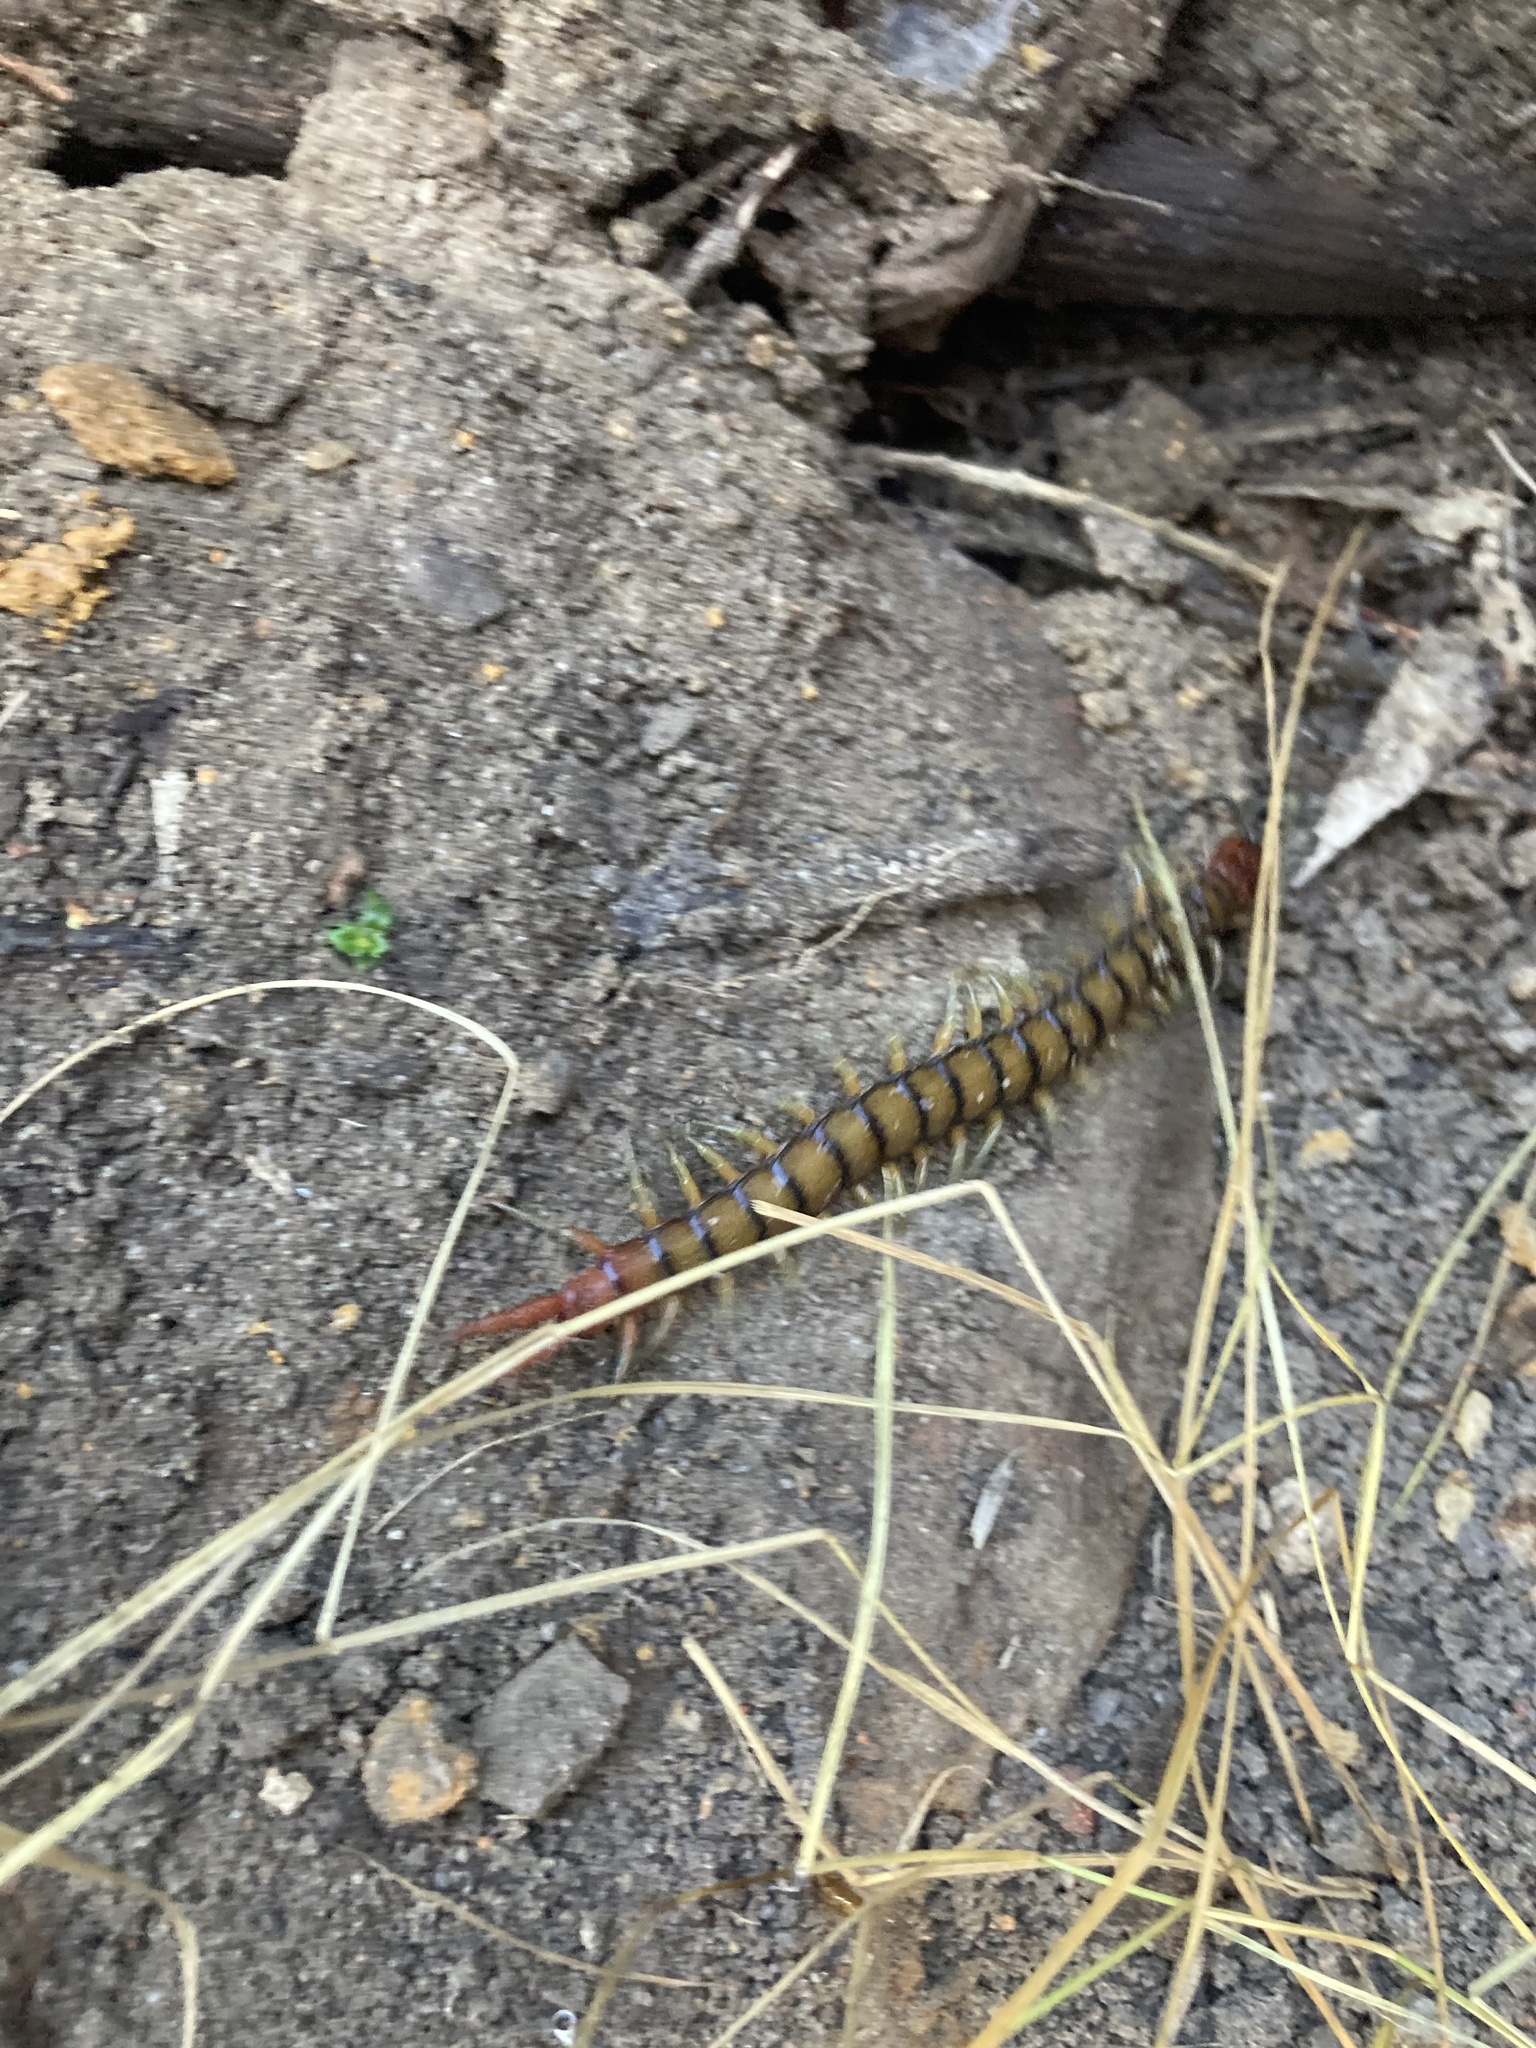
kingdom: Animalia
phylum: Arthropoda
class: Chilopoda
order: Scolopendromorpha
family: Scolopendridae
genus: Cormocephalus
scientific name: Cormocephalus aurantiipes
